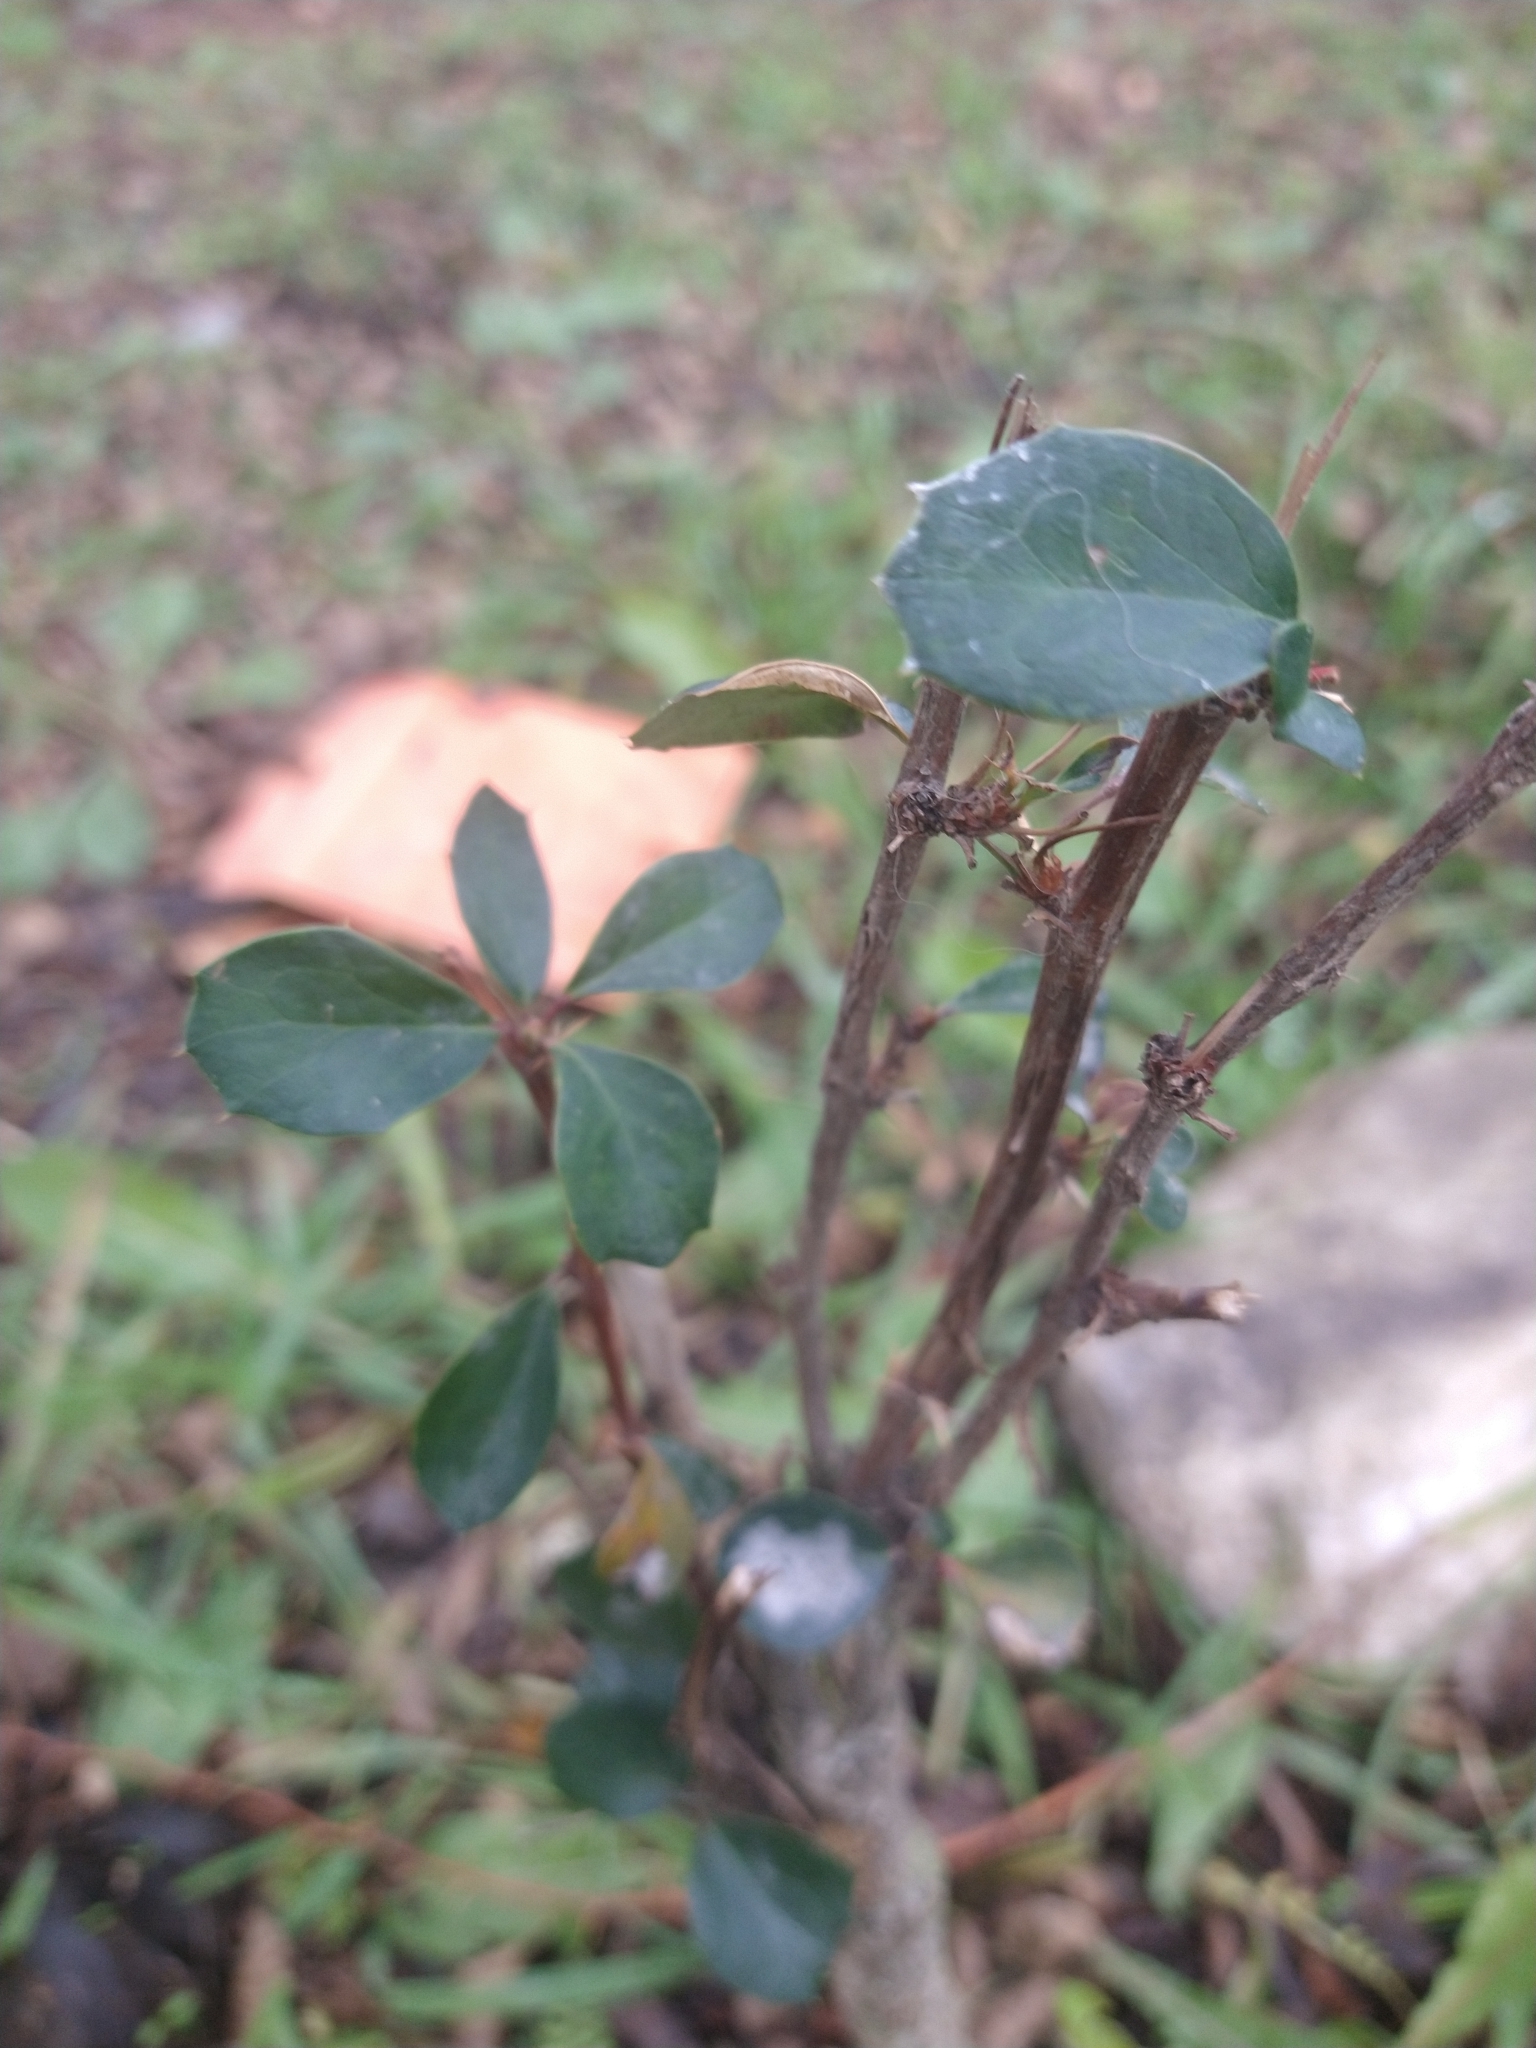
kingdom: Plantae
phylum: Tracheophyta
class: Magnoliopsida
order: Ranunculales
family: Berberidaceae
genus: Berberis
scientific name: Berberis ilicifolia
